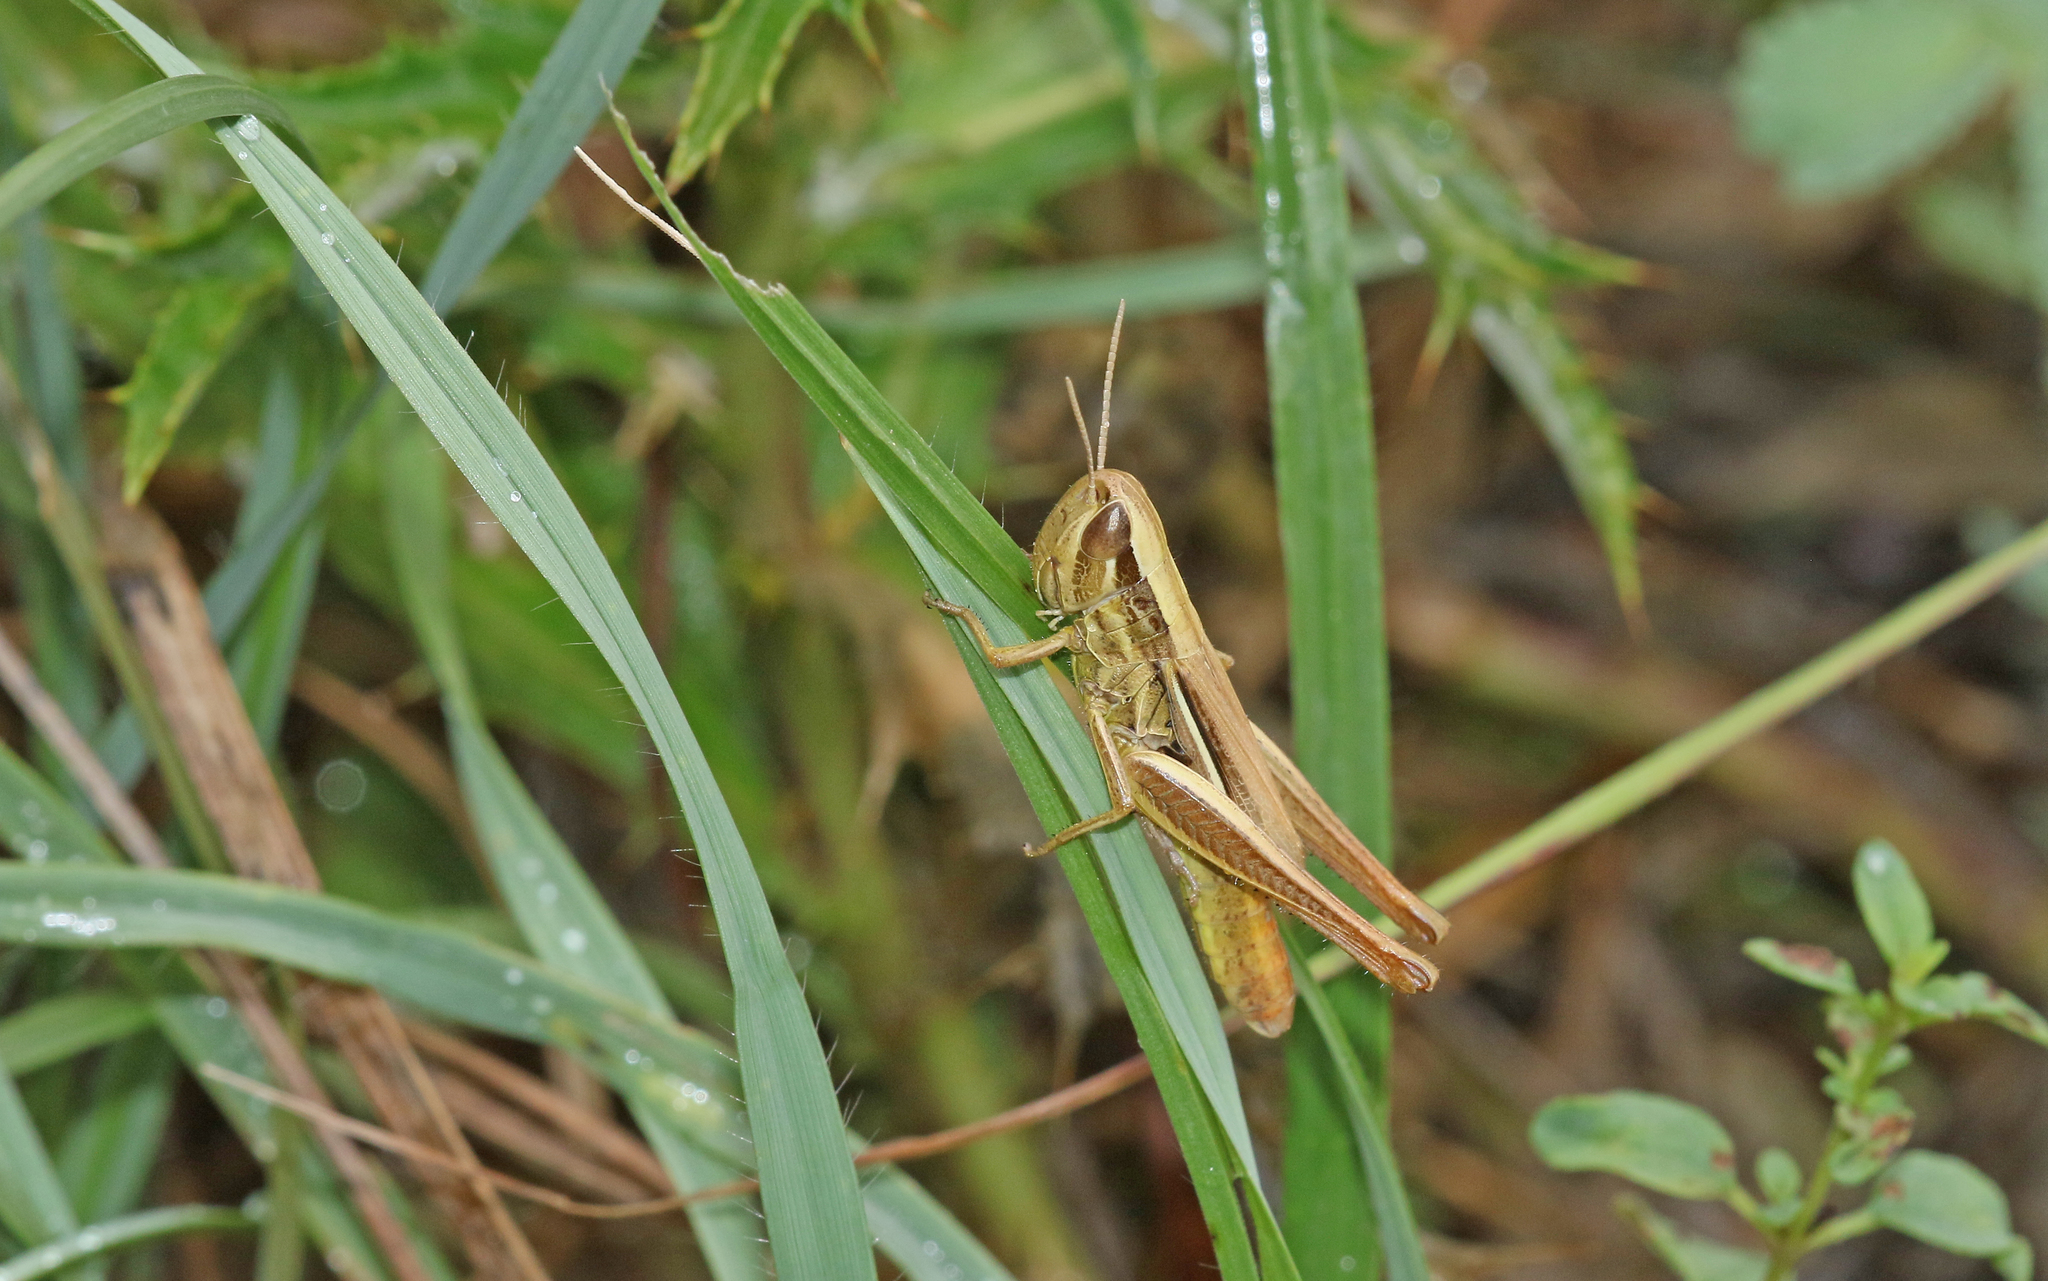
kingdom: Animalia
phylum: Arthropoda
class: Insecta
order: Orthoptera
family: Acrididae
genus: Euchorthippus
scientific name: Euchorthippus declivus
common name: Common straw grasshopper
